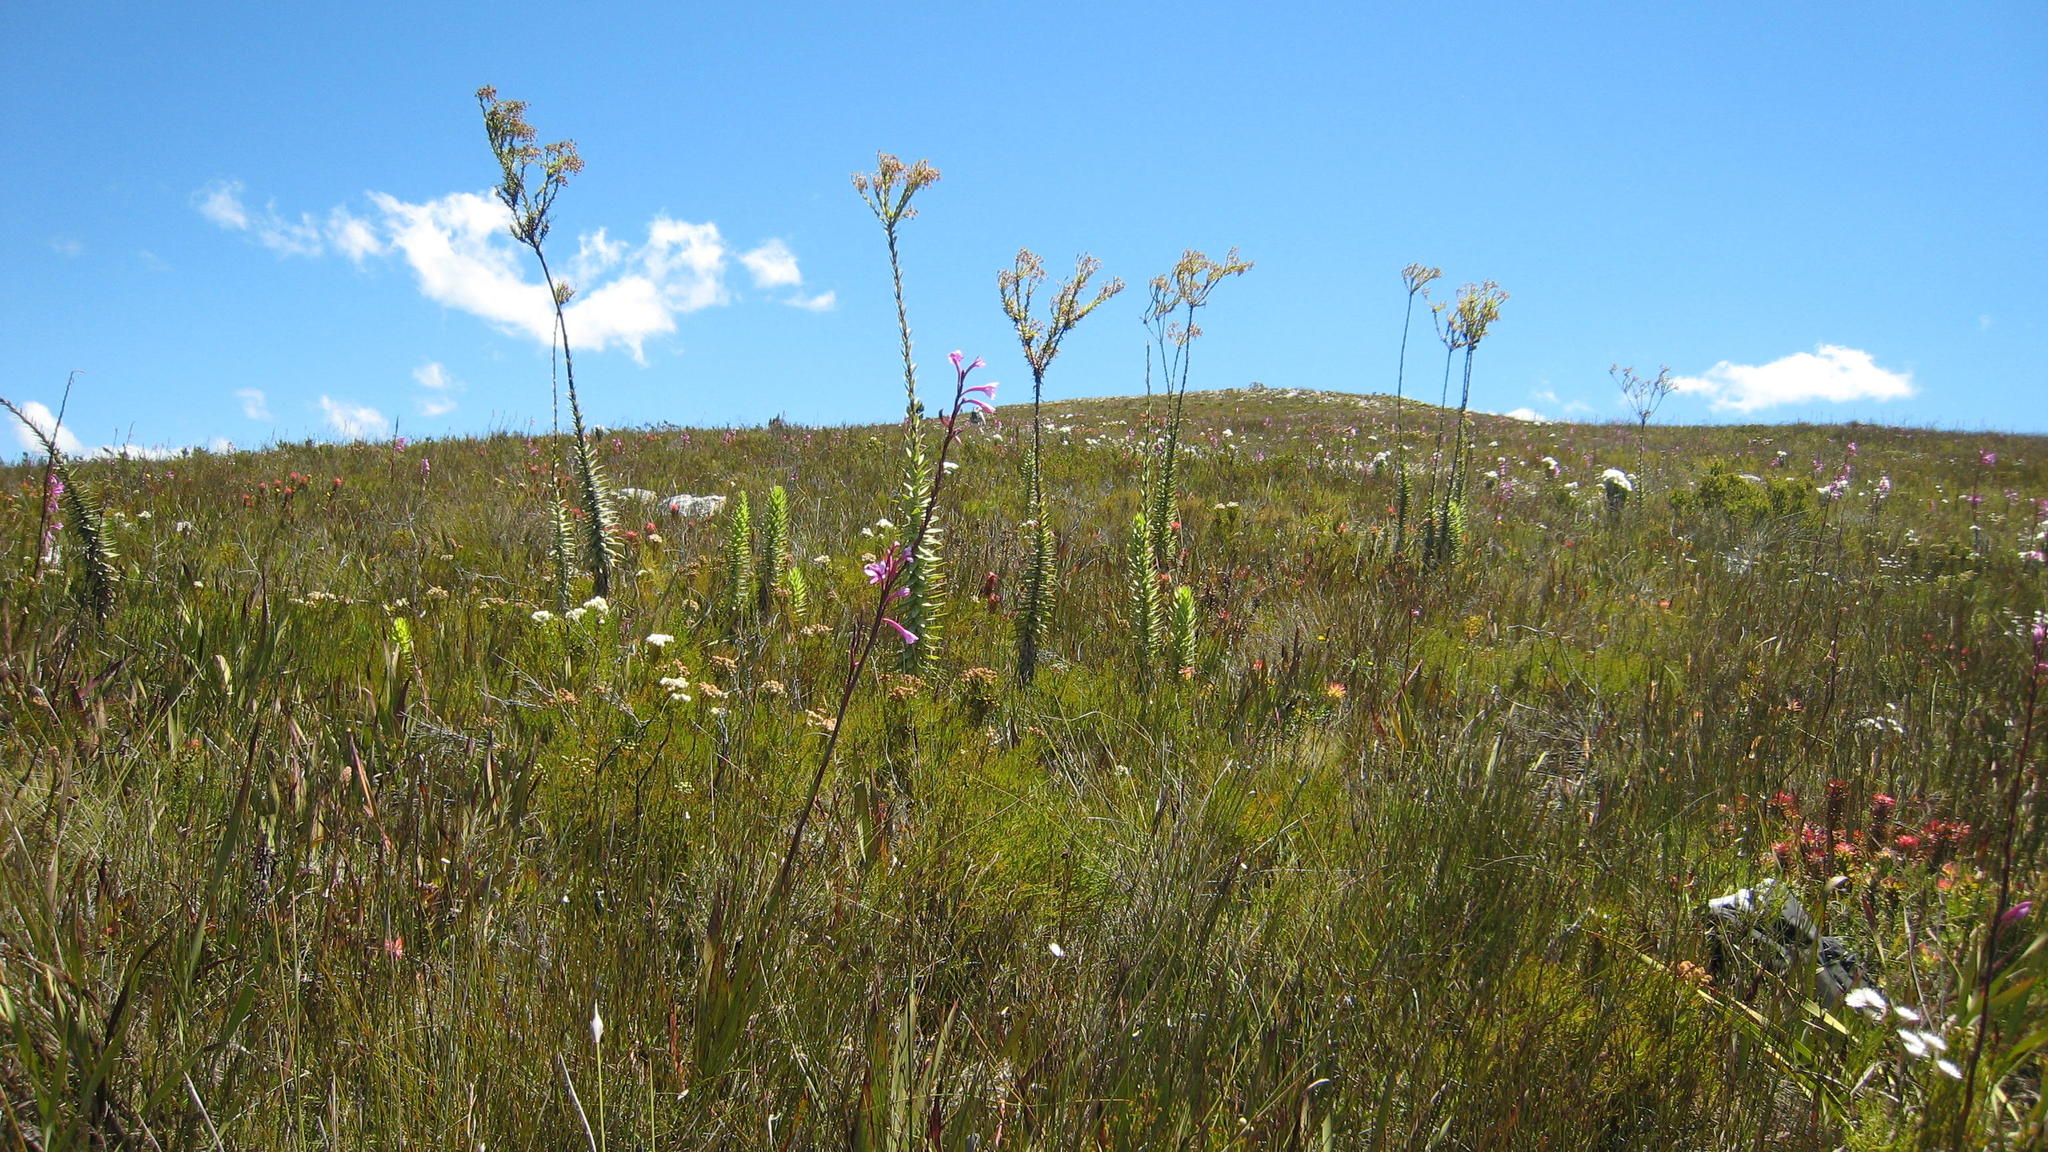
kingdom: Plantae
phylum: Tracheophyta
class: Magnoliopsida
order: Asterales
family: Asteraceae
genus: Osteospermum
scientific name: Osteospermum corymbosum
